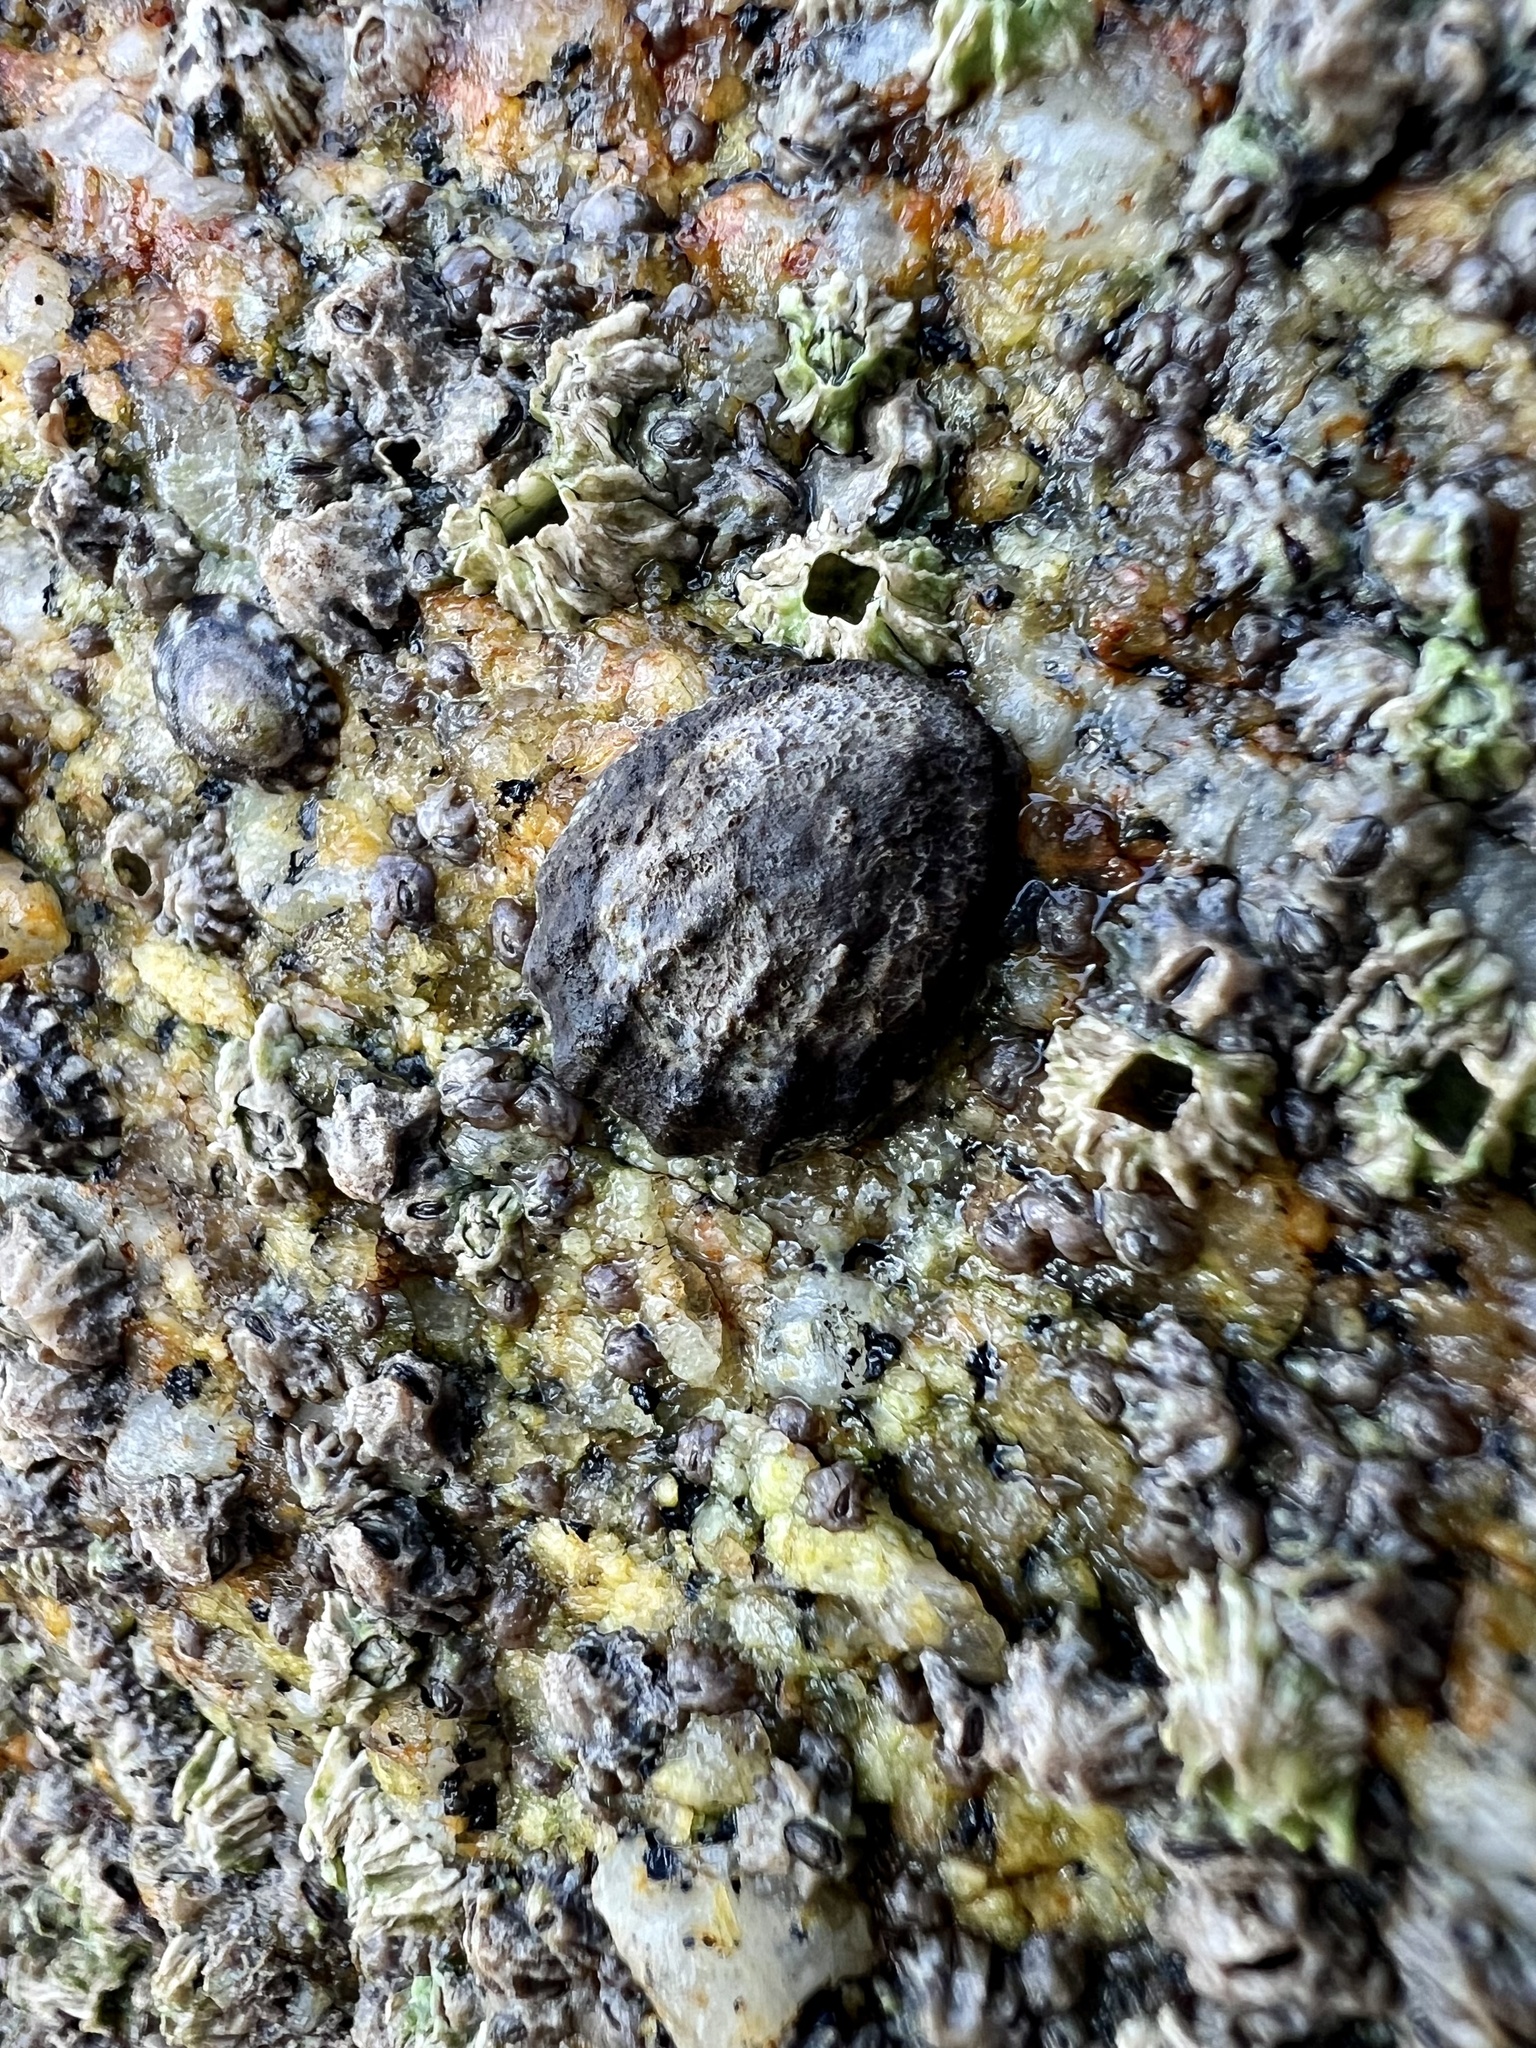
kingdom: Animalia
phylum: Mollusca
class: Gastropoda
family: Lottiidae
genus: Lottia
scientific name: Lottia digitalis
